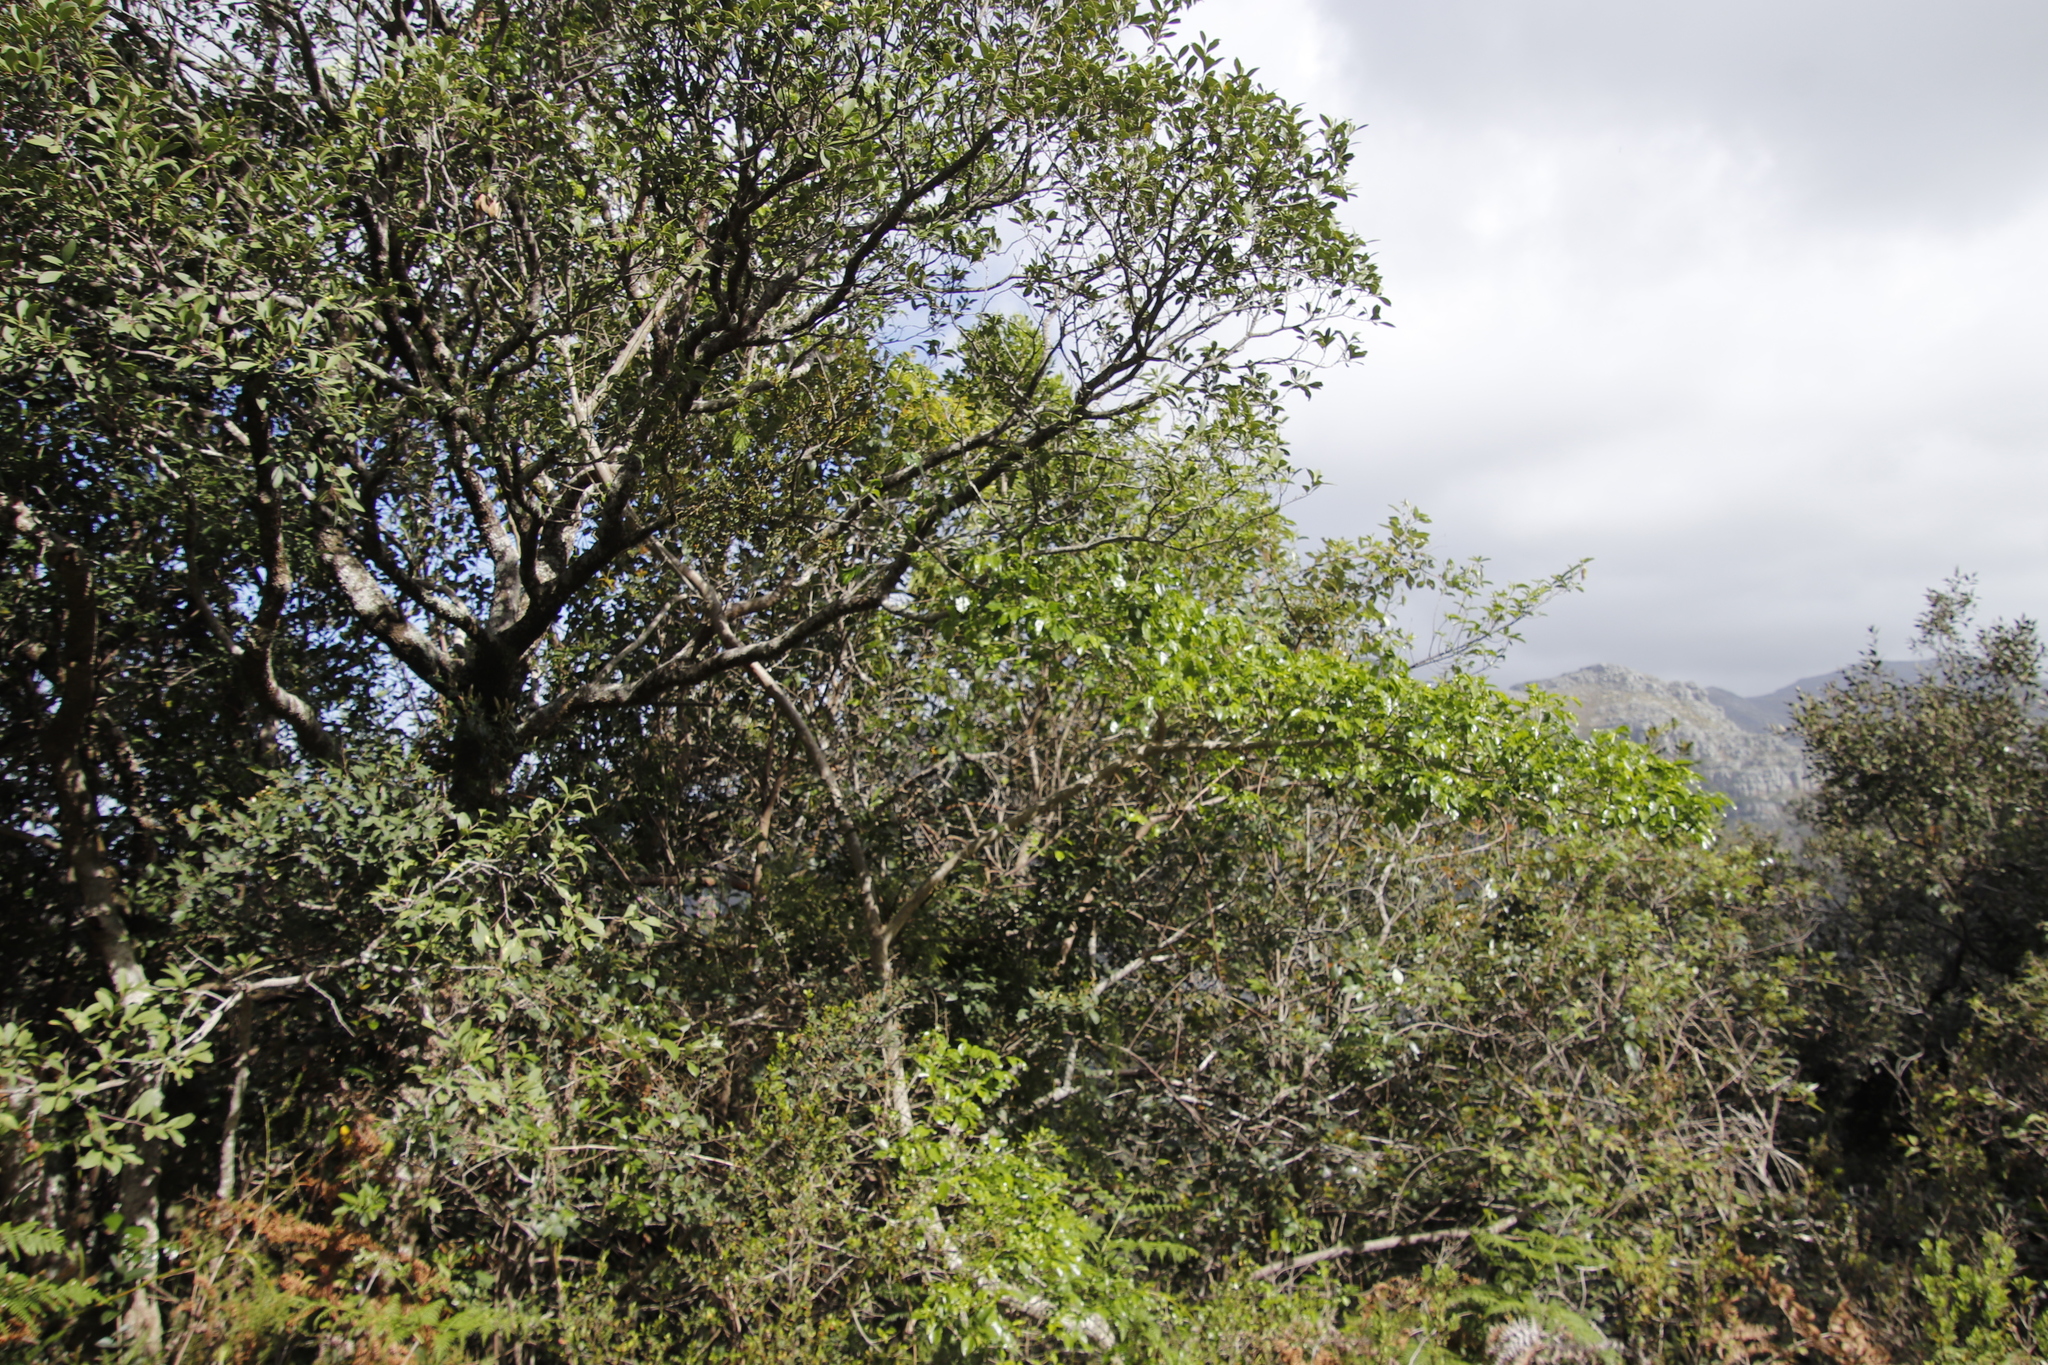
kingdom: Plantae
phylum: Tracheophyta
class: Magnoliopsida
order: Lamiales
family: Oleaceae
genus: Olea
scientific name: Olea capensis
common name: Black ironwood
